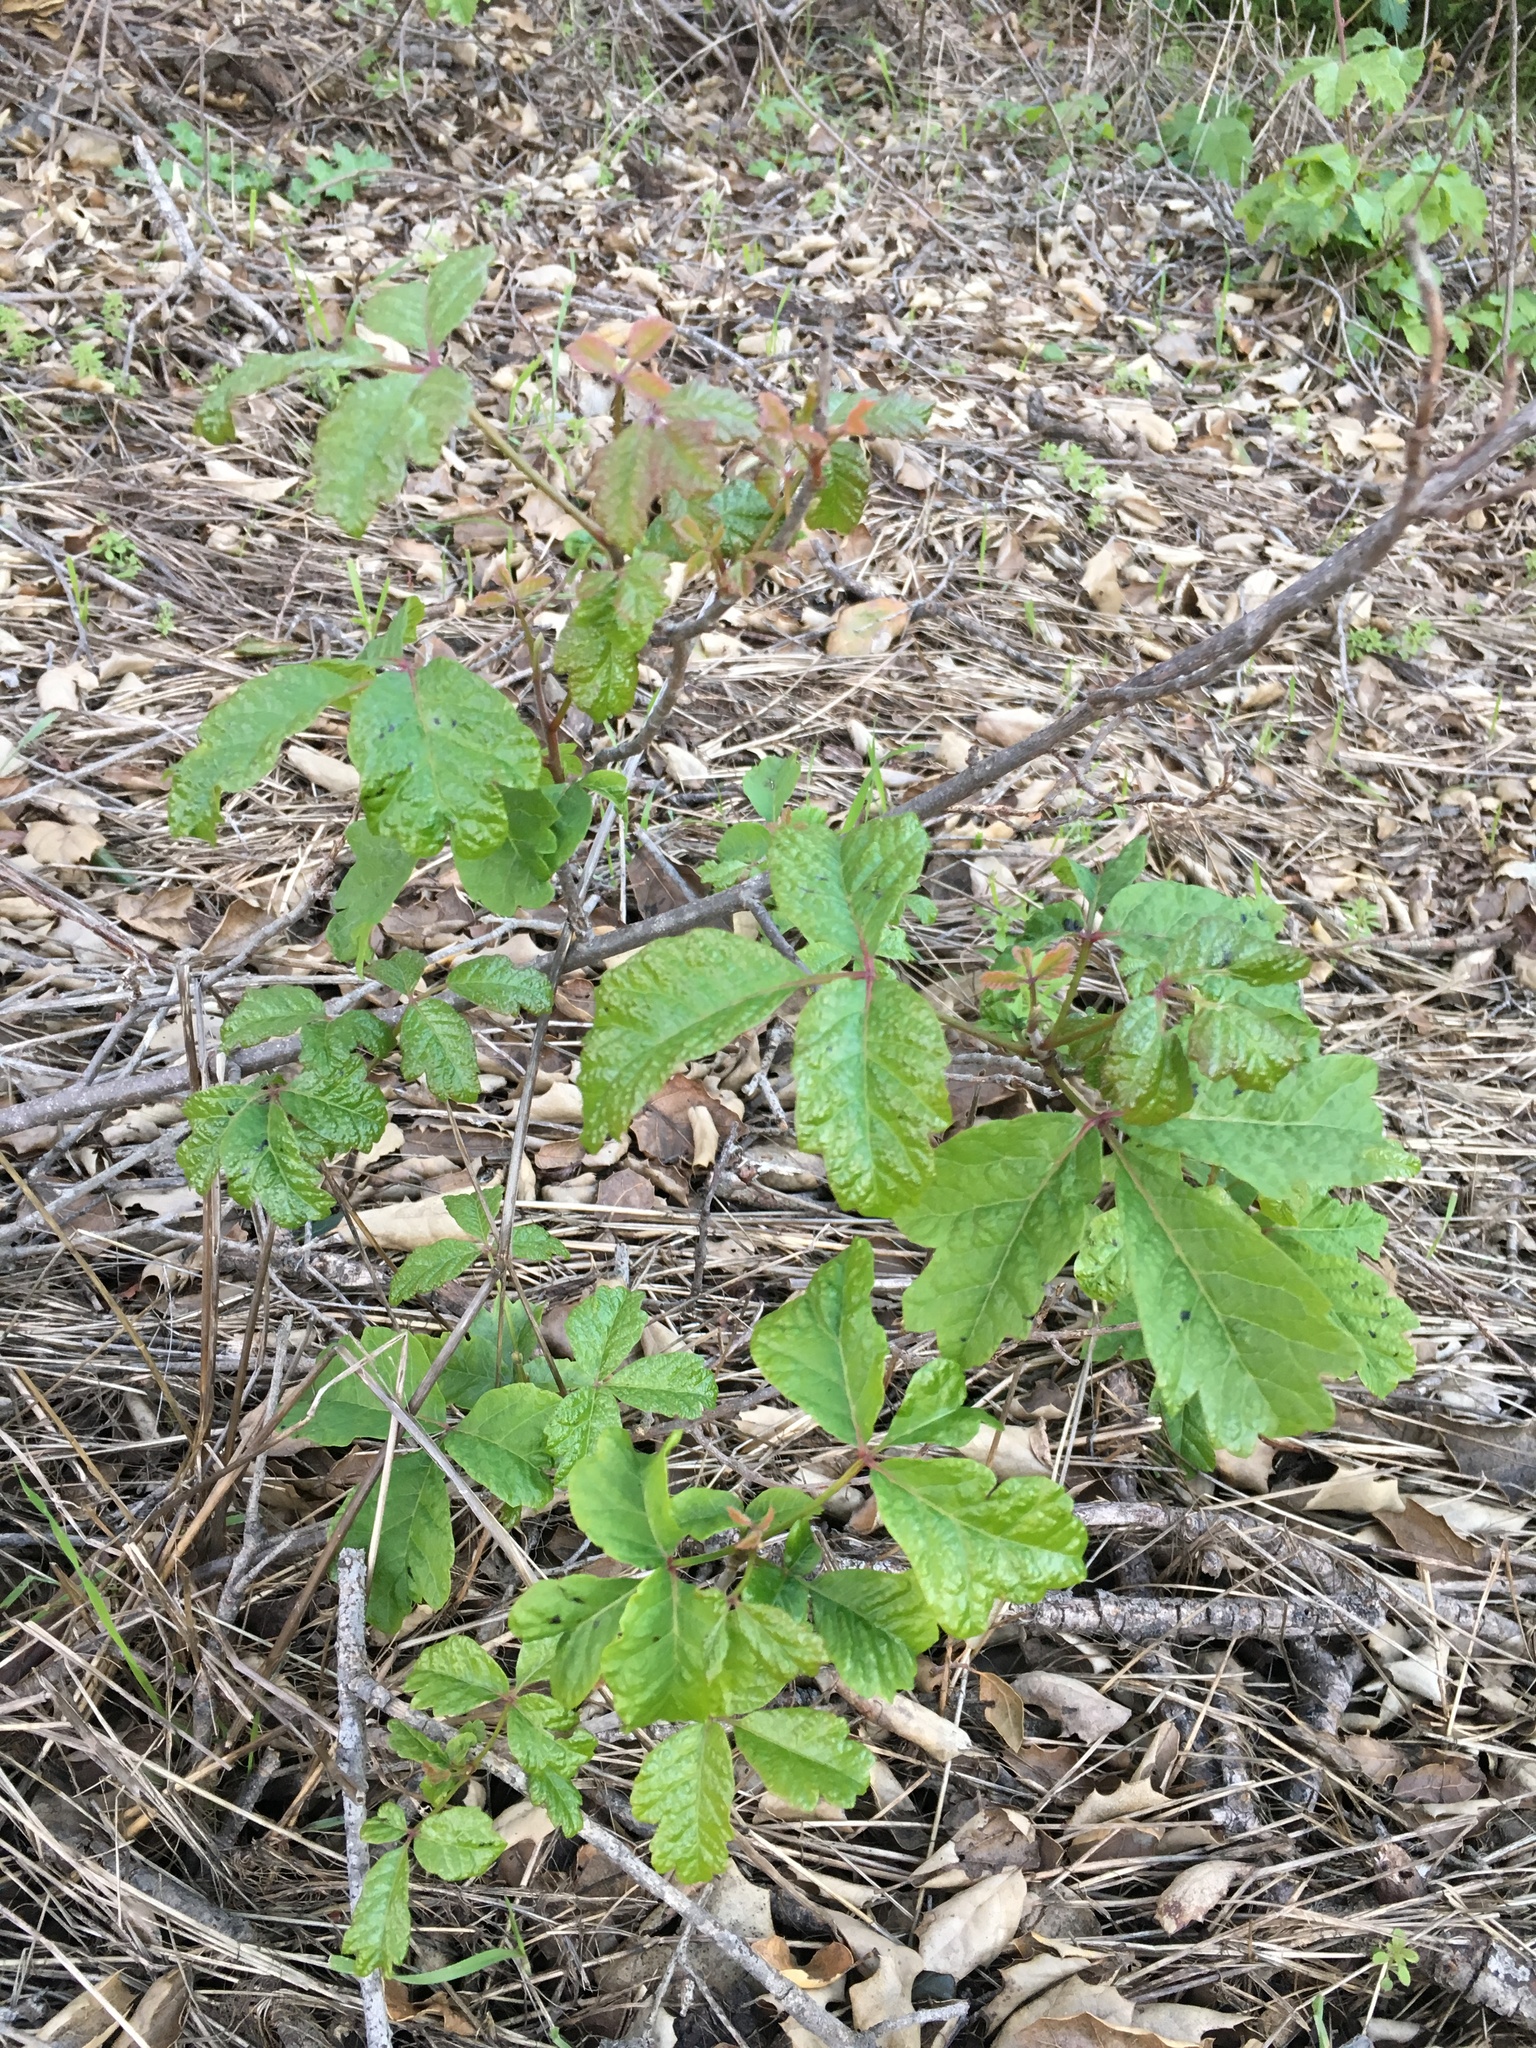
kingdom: Plantae
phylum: Tracheophyta
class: Magnoliopsida
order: Sapindales
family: Anacardiaceae
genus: Toxicodendron
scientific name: Toxicodendron diversilobum
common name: Pacific poison-oak
